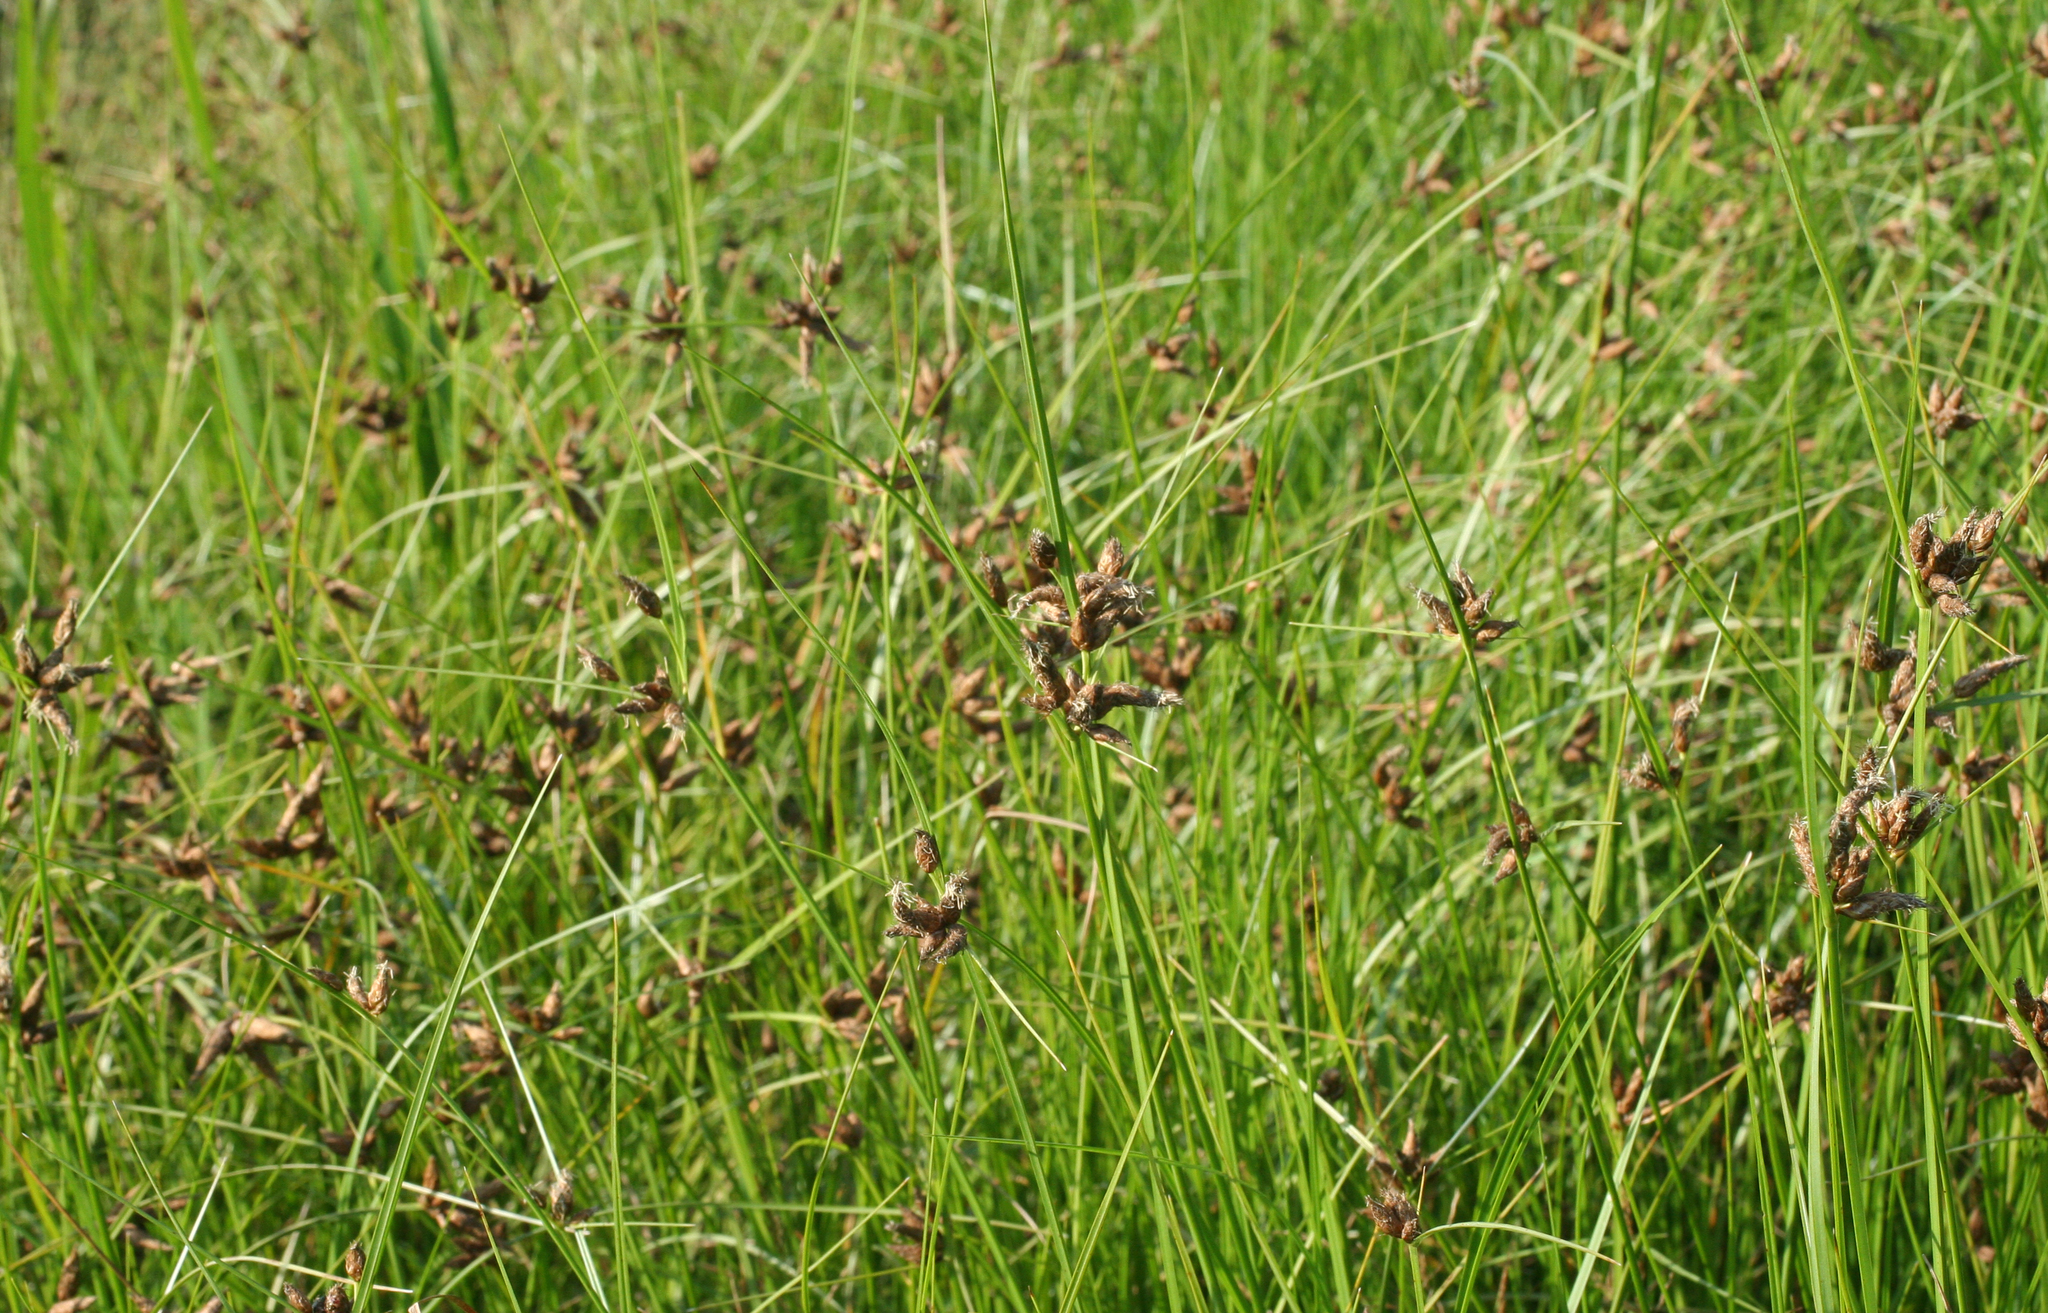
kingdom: Plantae
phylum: Tracheophyta
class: Liliopsida
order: Poales
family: Cyperaceae
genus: Bolboschoenus
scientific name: Bolboschoenus
